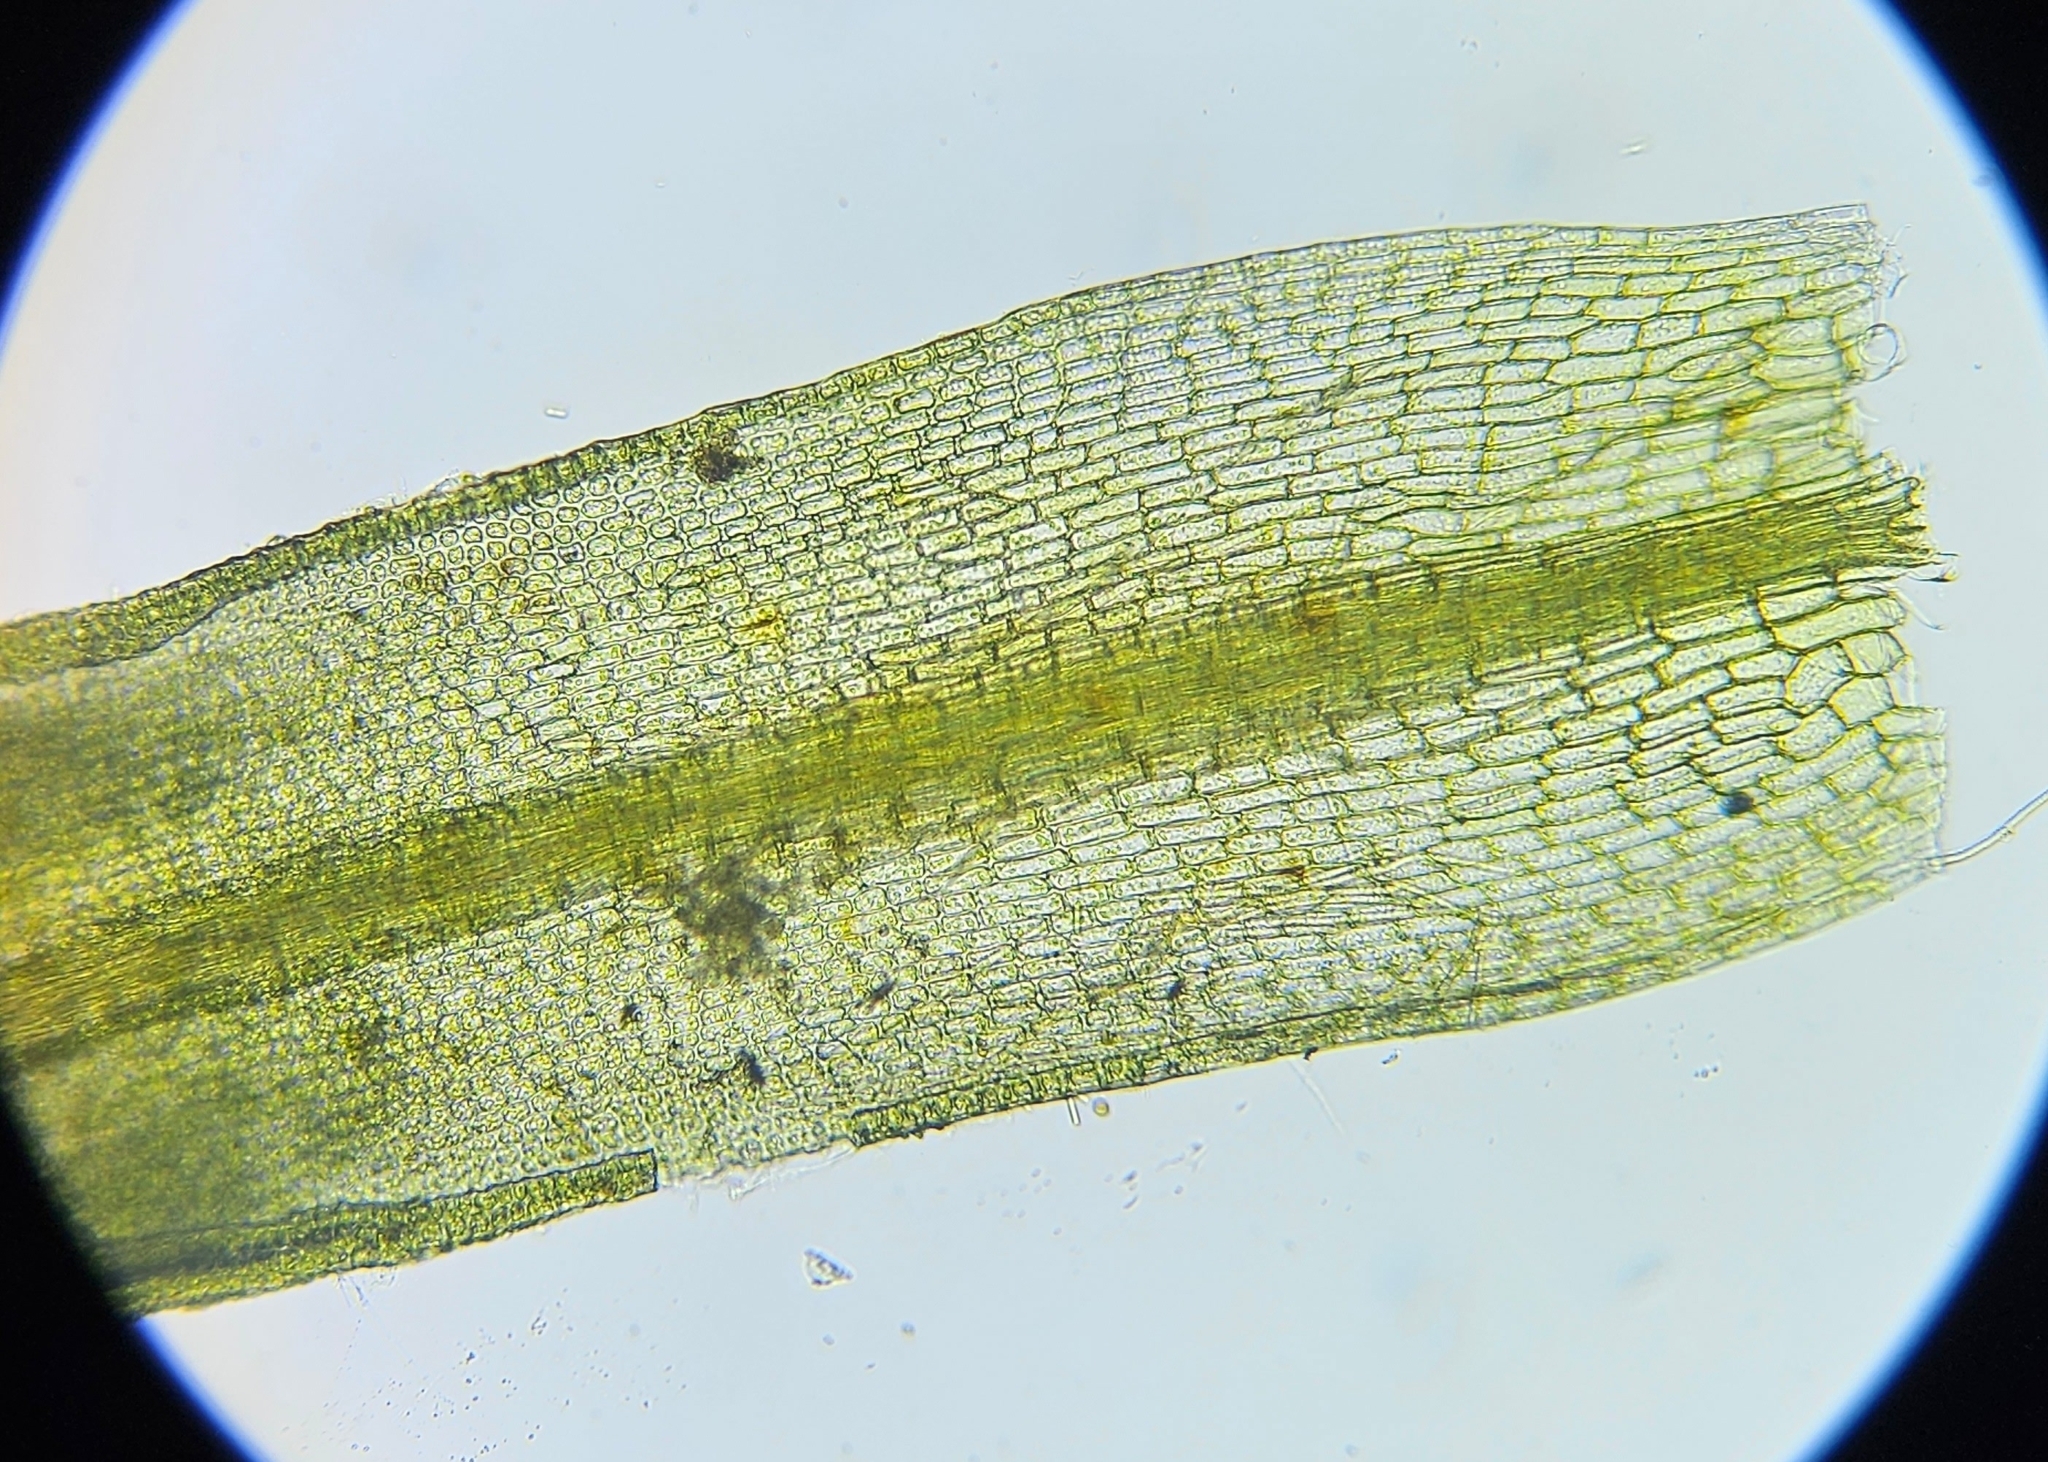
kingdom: Plantae
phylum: Bryophyta
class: Bryopsida
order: Pottiales
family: Pottiaceae
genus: Tortula
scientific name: Tortula muralis
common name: Wall screw-moss
